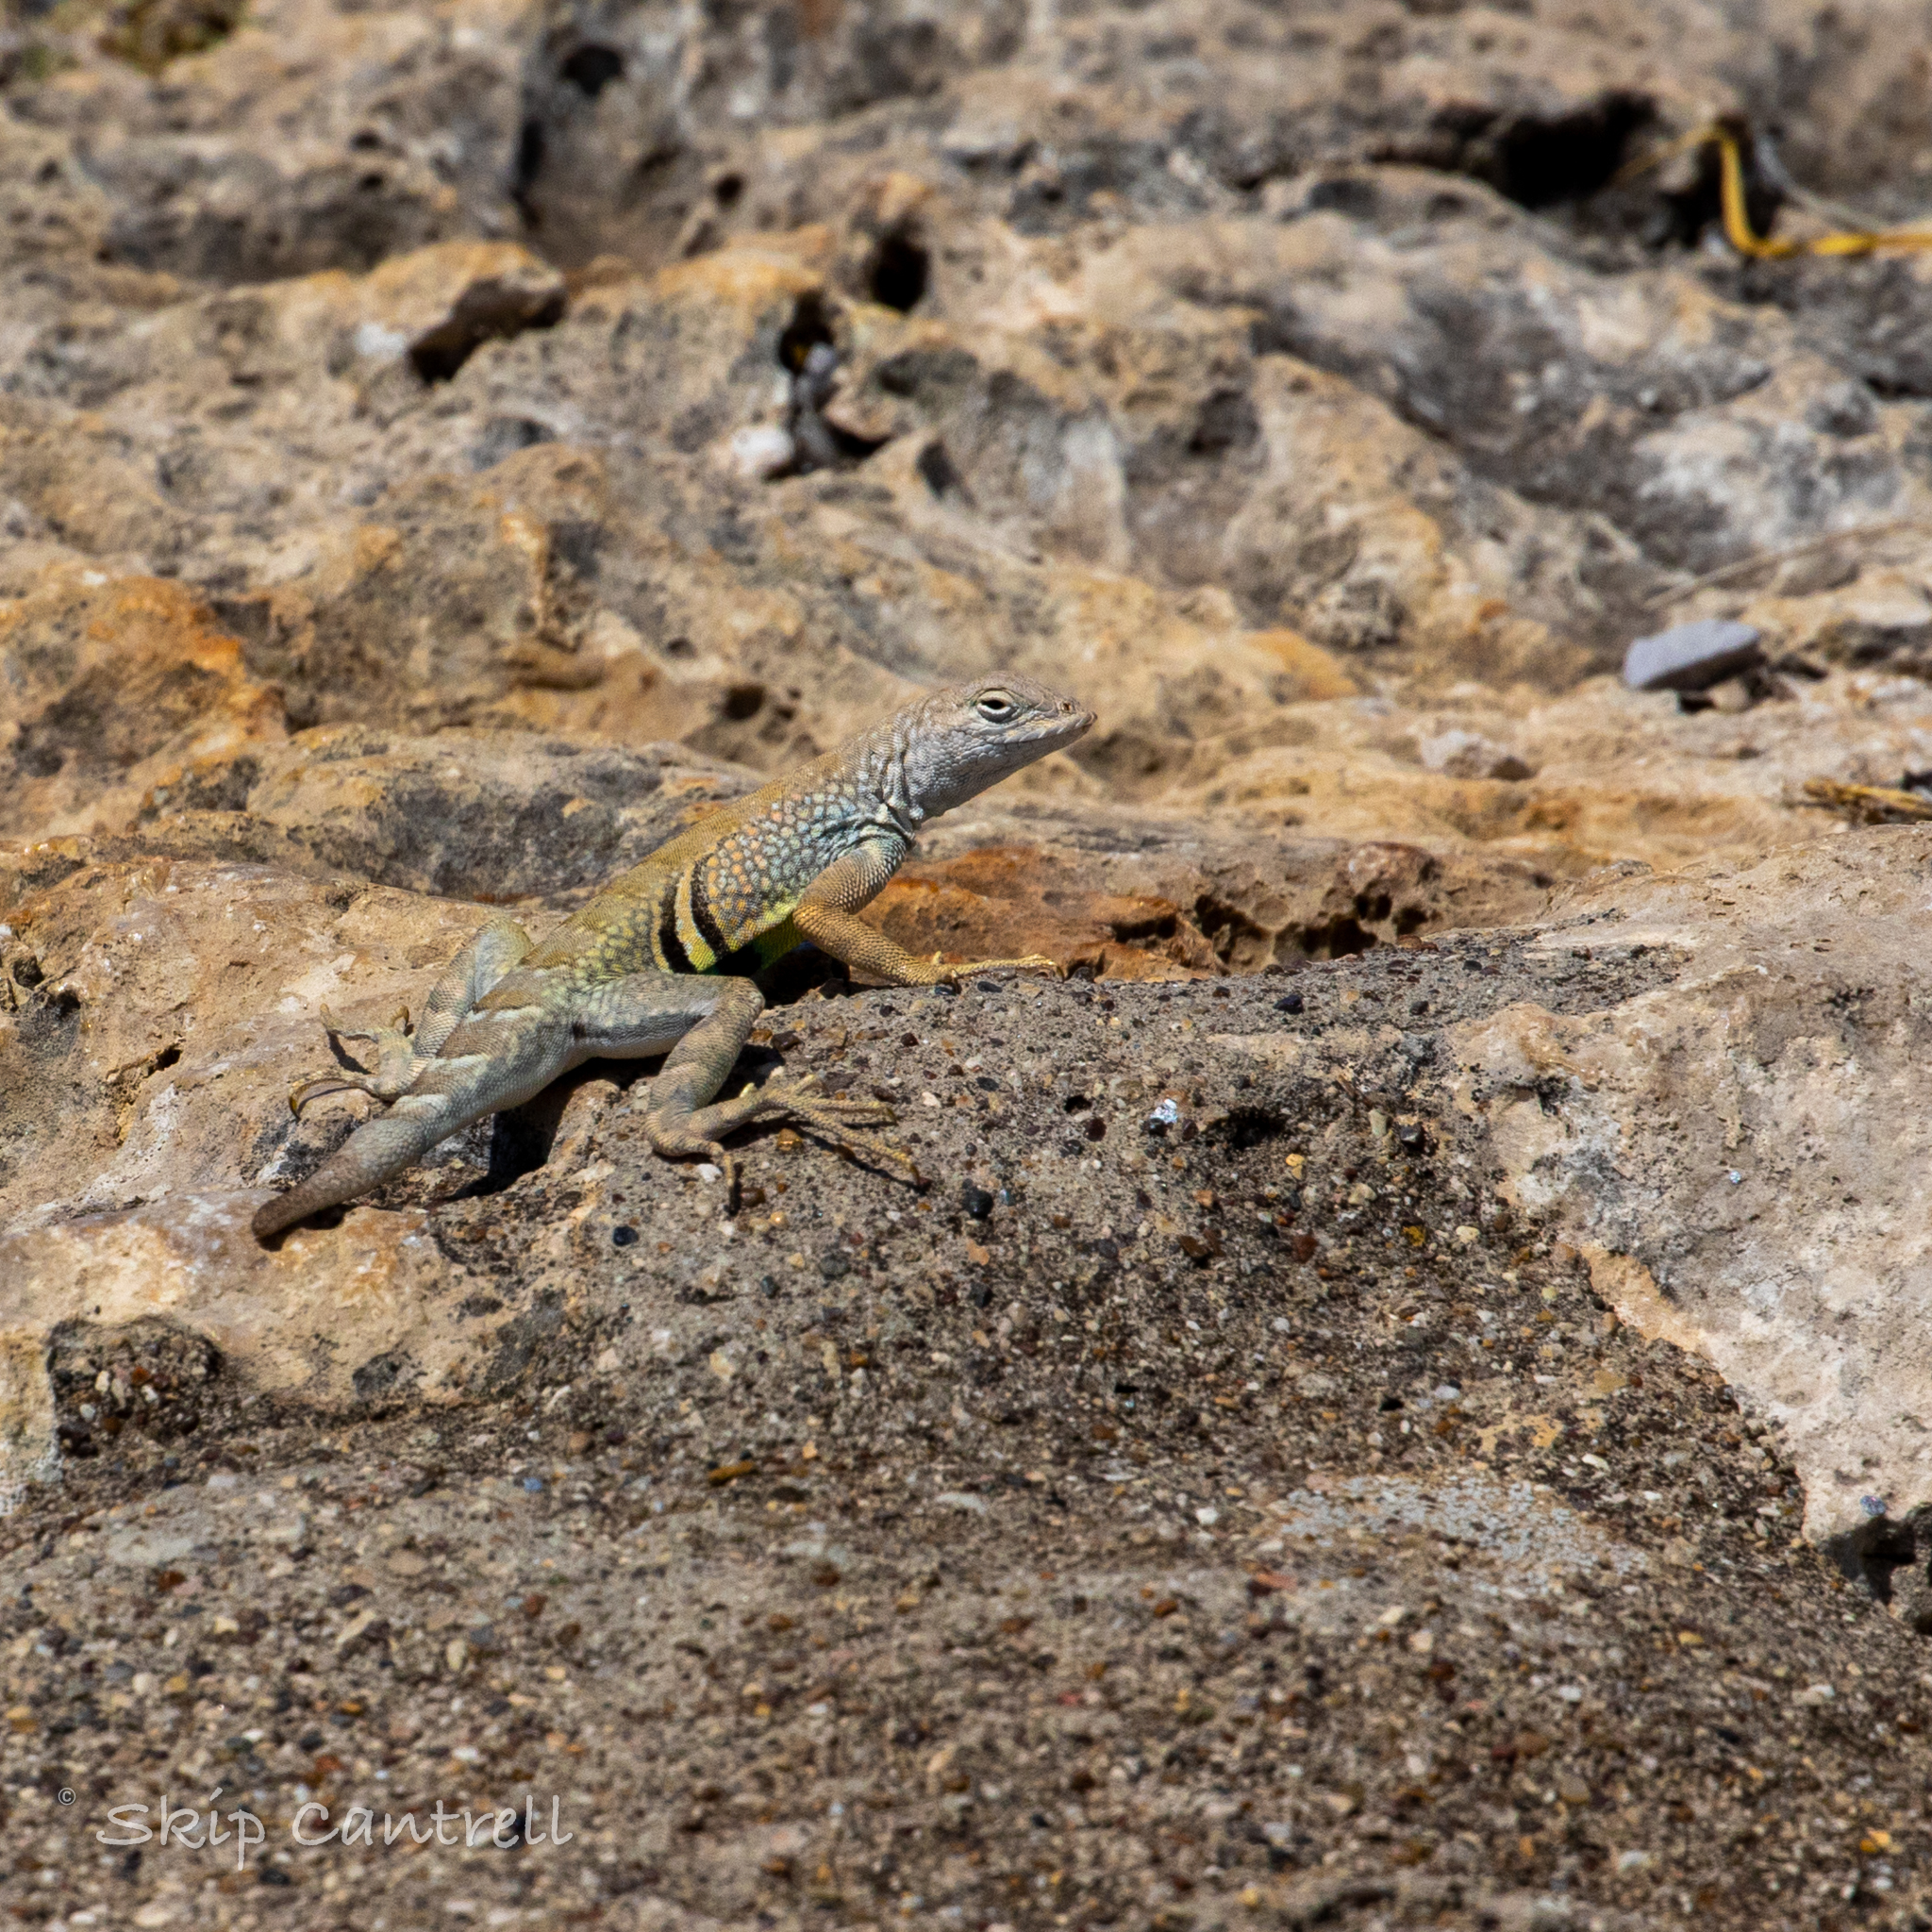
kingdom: Animalia
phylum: Chordata
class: Squamata
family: Phrynosomatidae
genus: Cophosaurus
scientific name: Cophosaurus texanus
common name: Greater earless lizard
